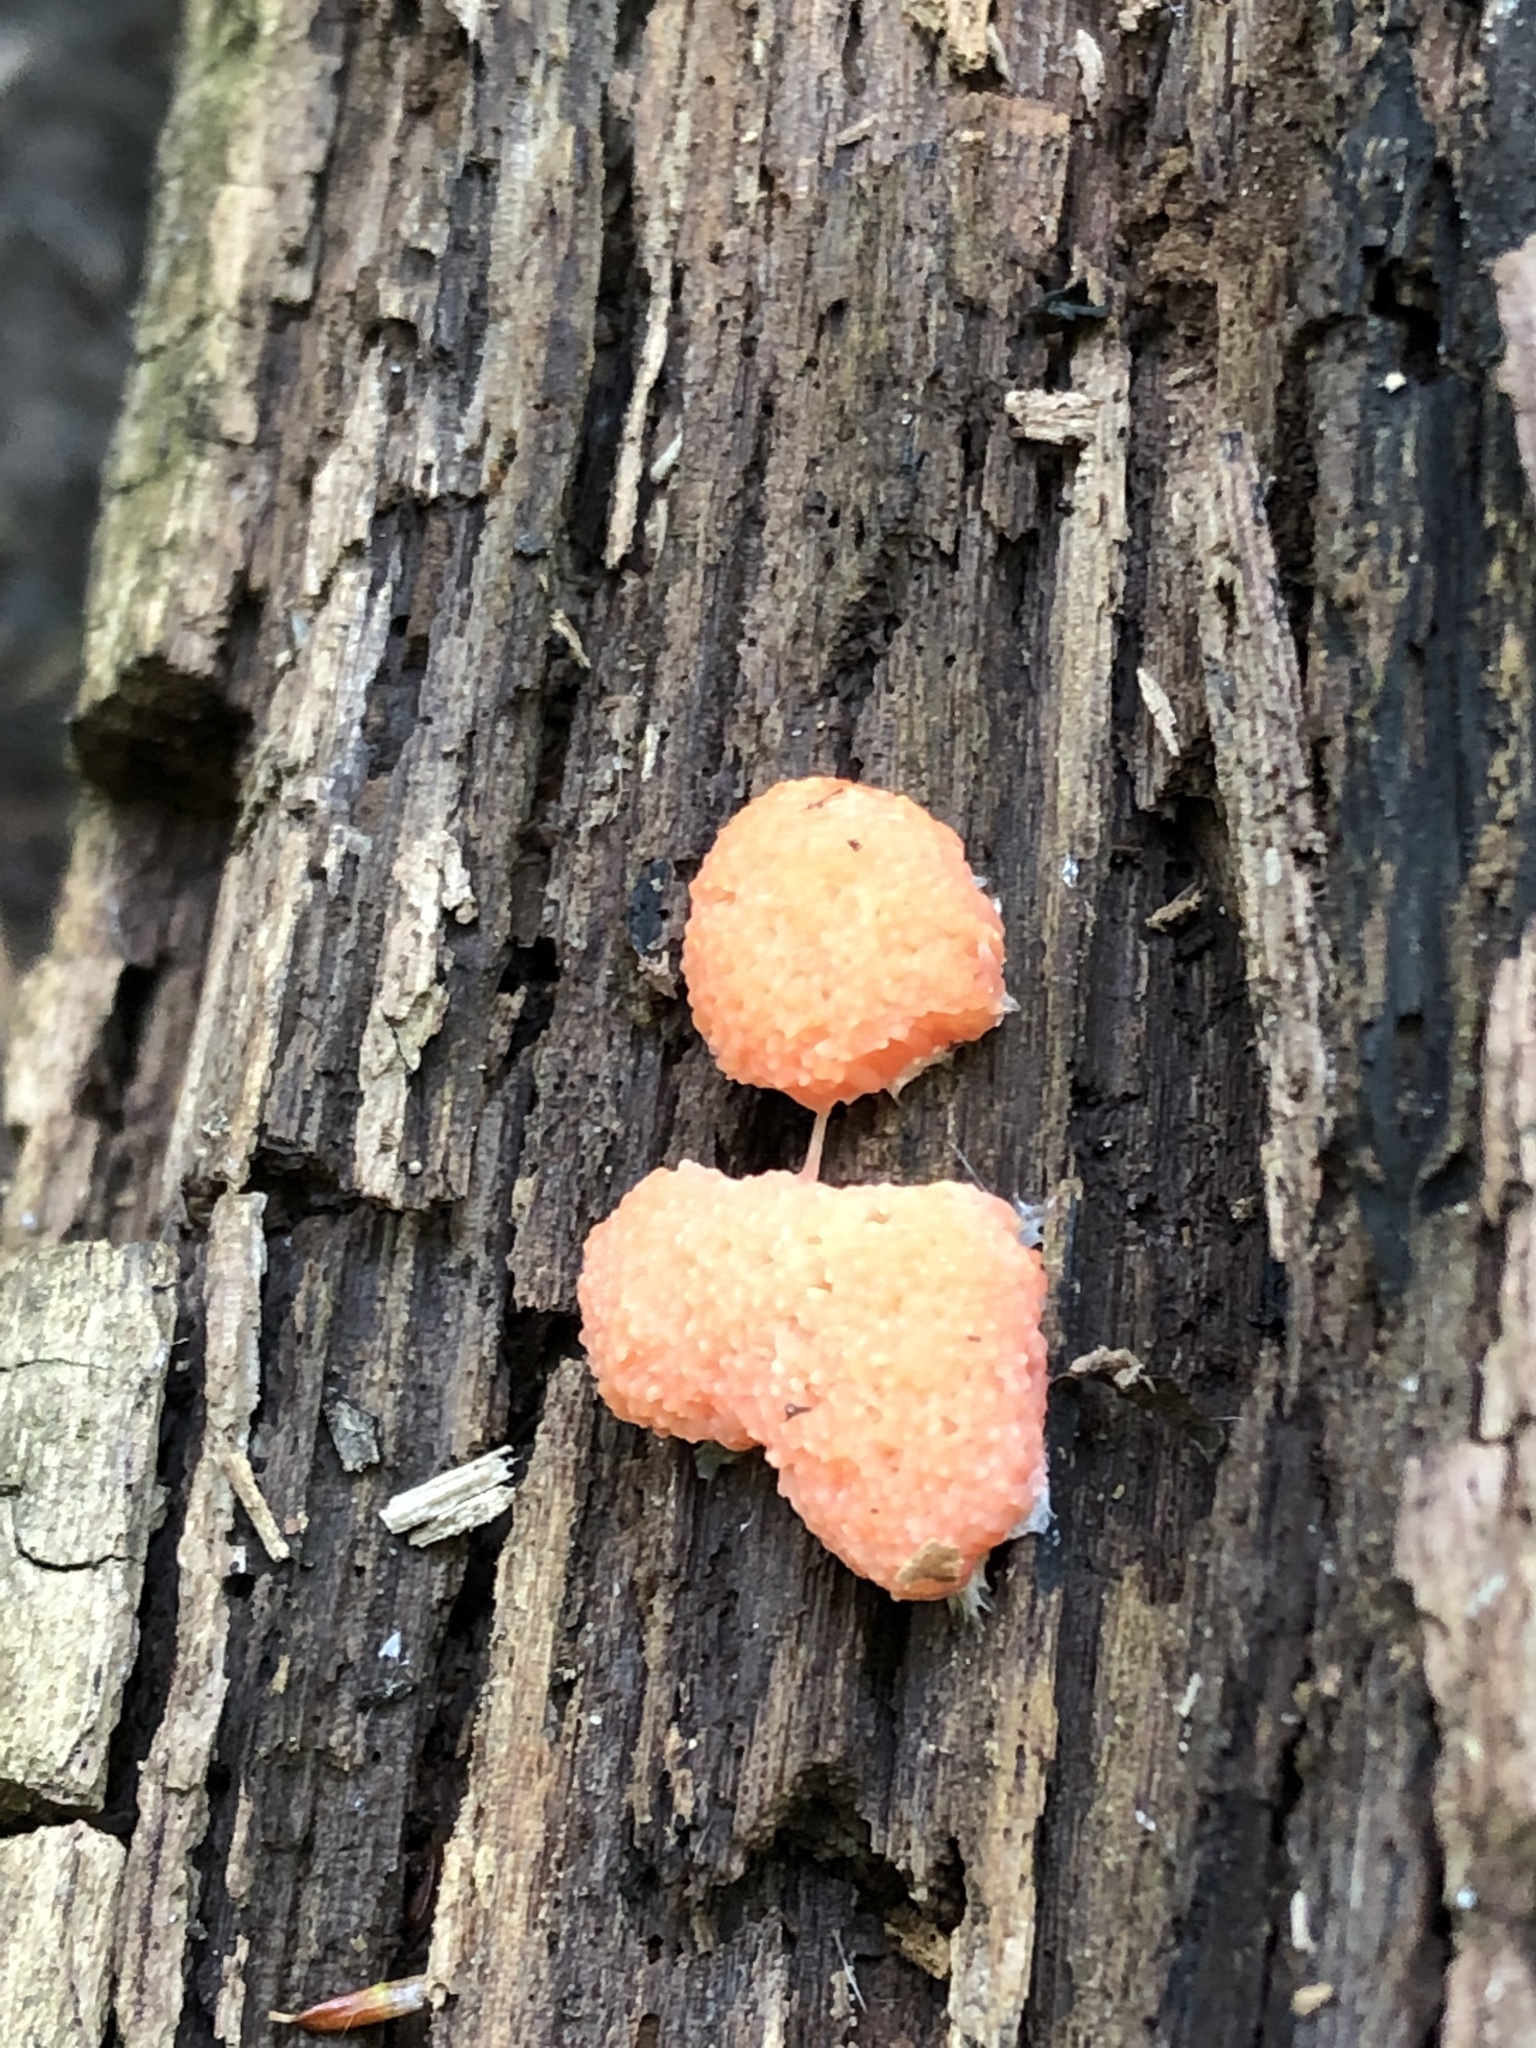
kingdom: Protozoa
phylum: Mycetozoa
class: Myxomycetes
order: Cribrariales
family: Tubiferaceae
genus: Tubifera
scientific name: Tubifera ferruginosa
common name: Red raspberry slime mold
